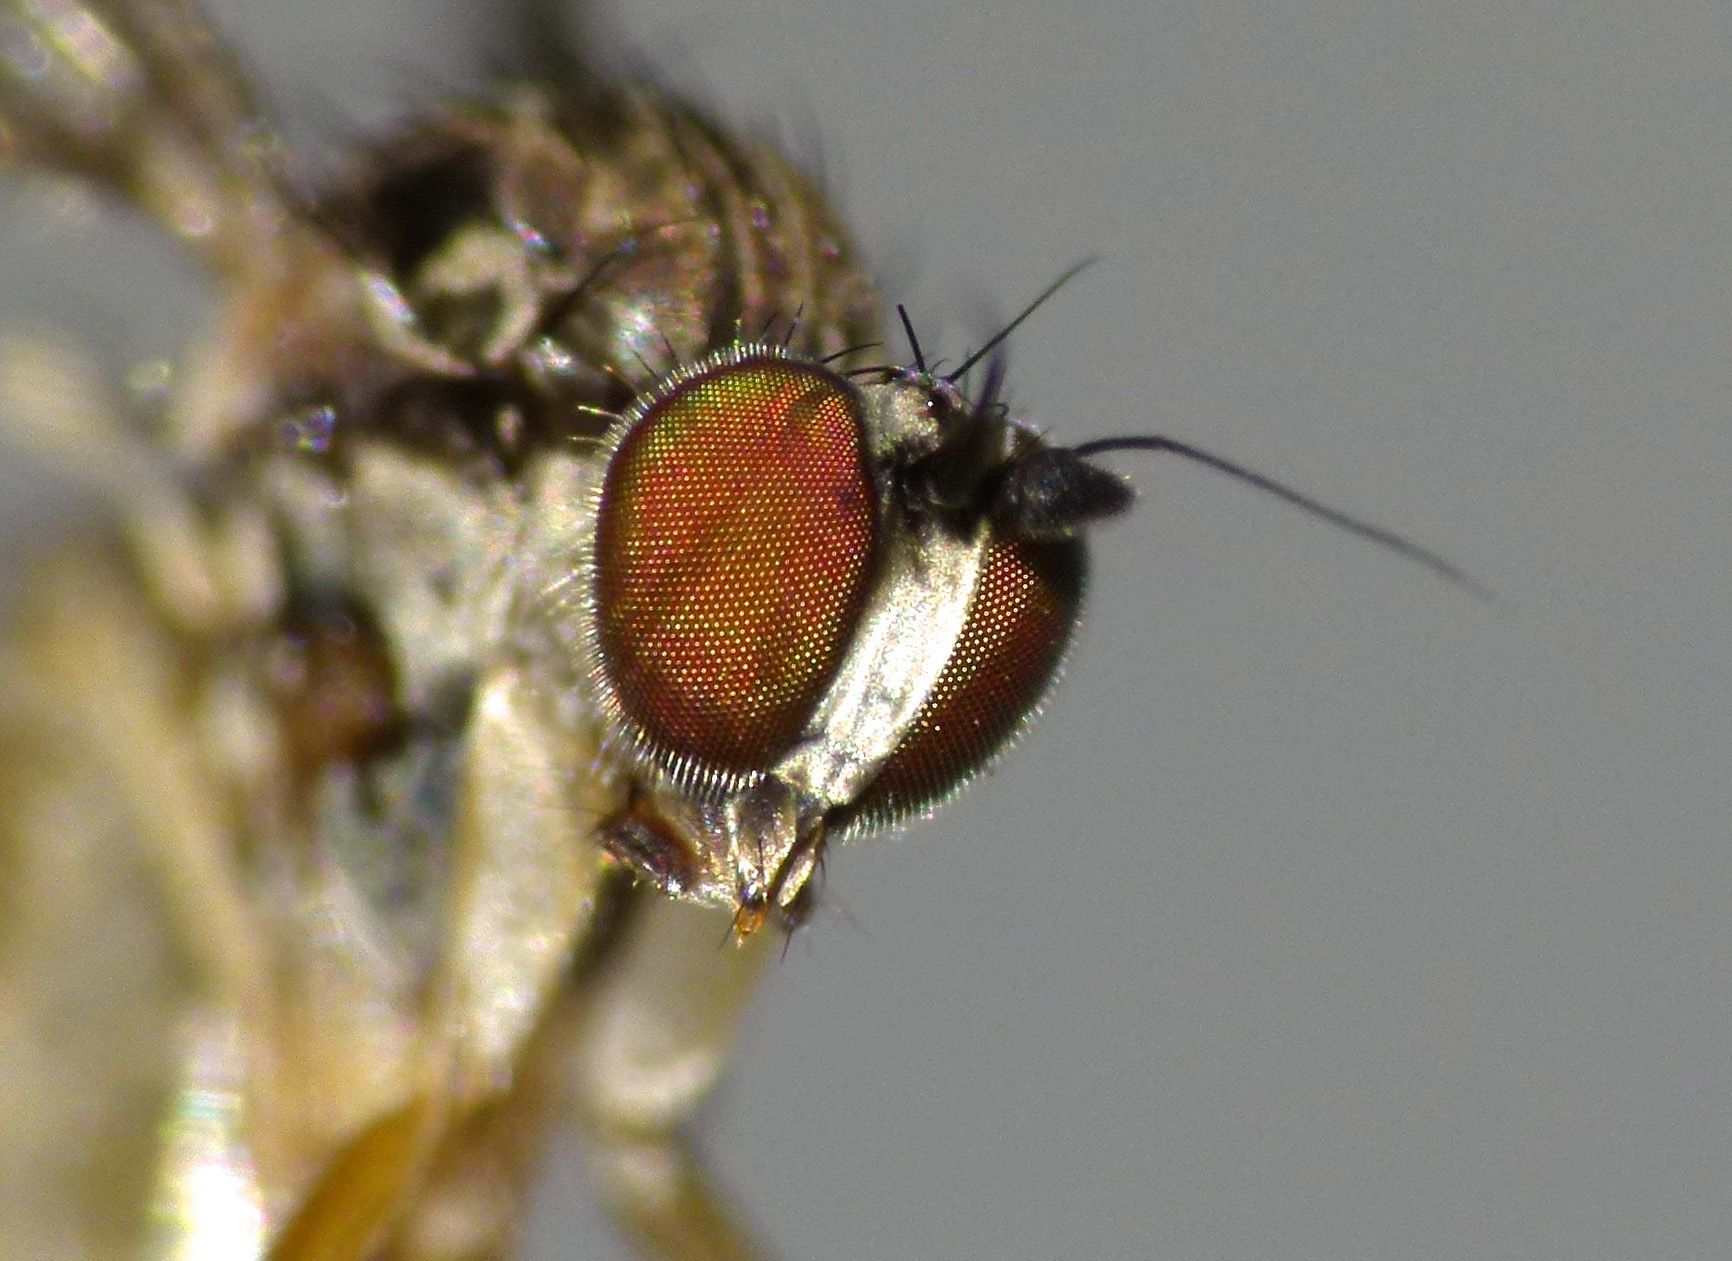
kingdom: Animalia
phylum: Arthropoda
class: Insecta
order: Diptera
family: Dolichopodidae
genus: Sympycnus
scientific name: Sympycnus longipilus
